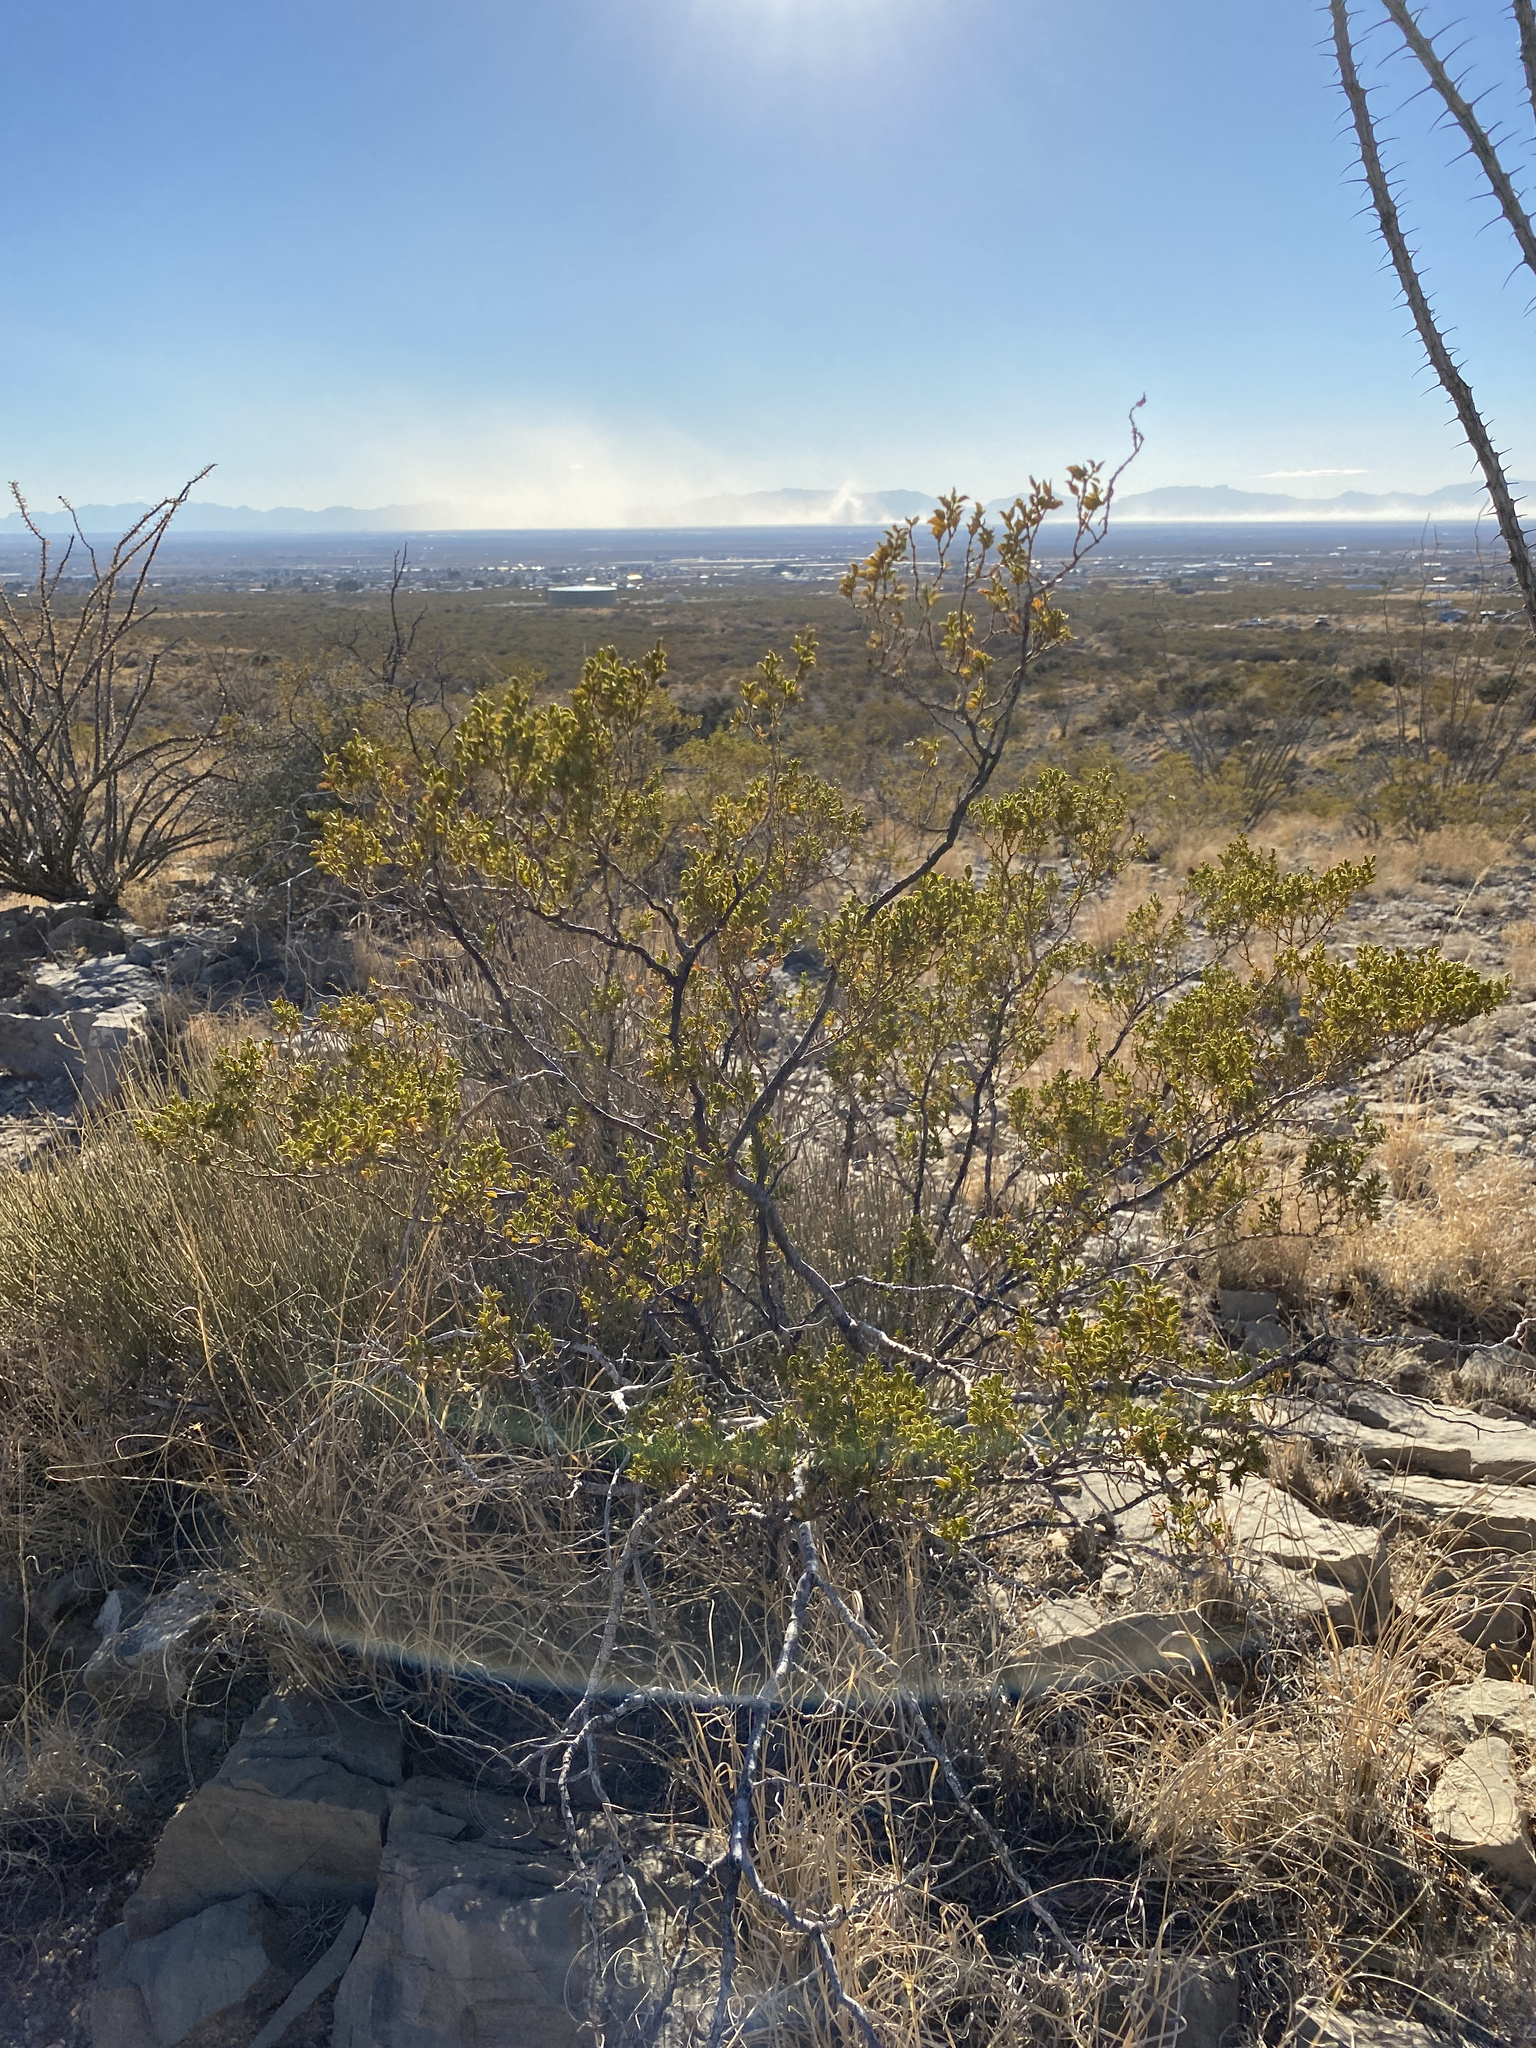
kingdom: Plantae
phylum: Tracheophyta
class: Magnoliopsida
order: Zygophyllales
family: Zygophyllaceae
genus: Larrea
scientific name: Larrea tridentata
